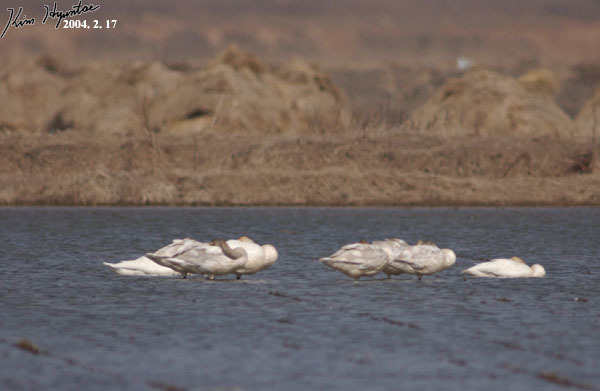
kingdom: Animalia
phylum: Chordata
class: Aves
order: Anseriformes
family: Anatidae
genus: Cygnus
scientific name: Cygnus cygnus
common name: Whooper swan
